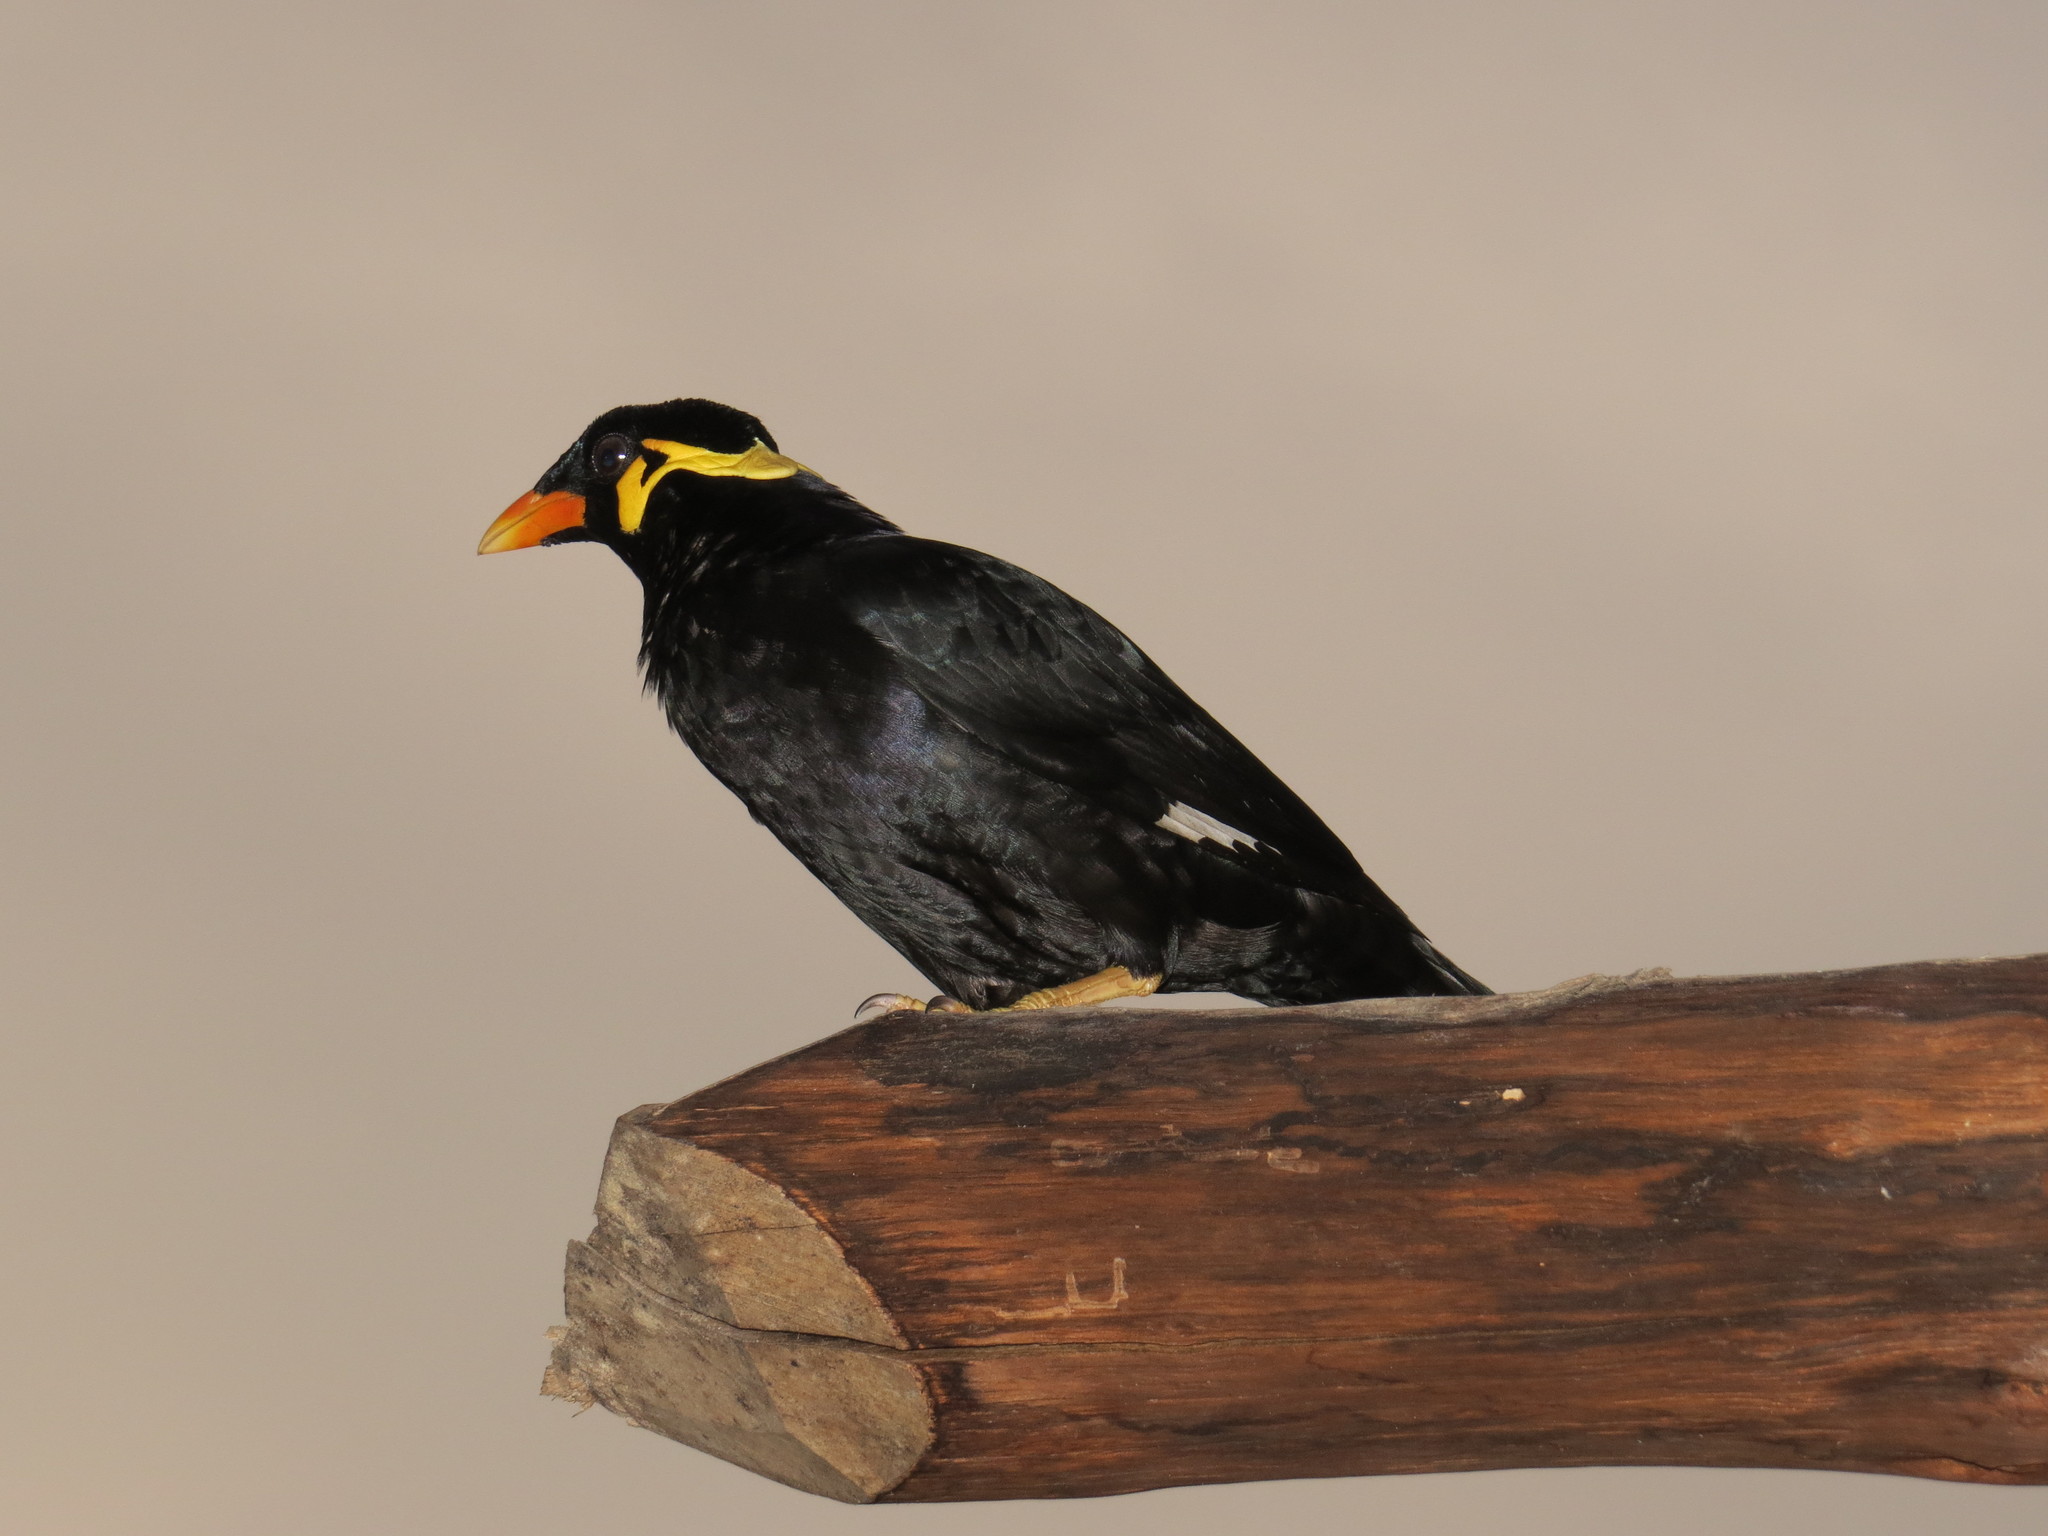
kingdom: Animalia
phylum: Chordata
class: Aves
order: Passeriformes
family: Sturnidae
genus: Gracula
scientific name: Gracula religiosa
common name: Common hill myna
